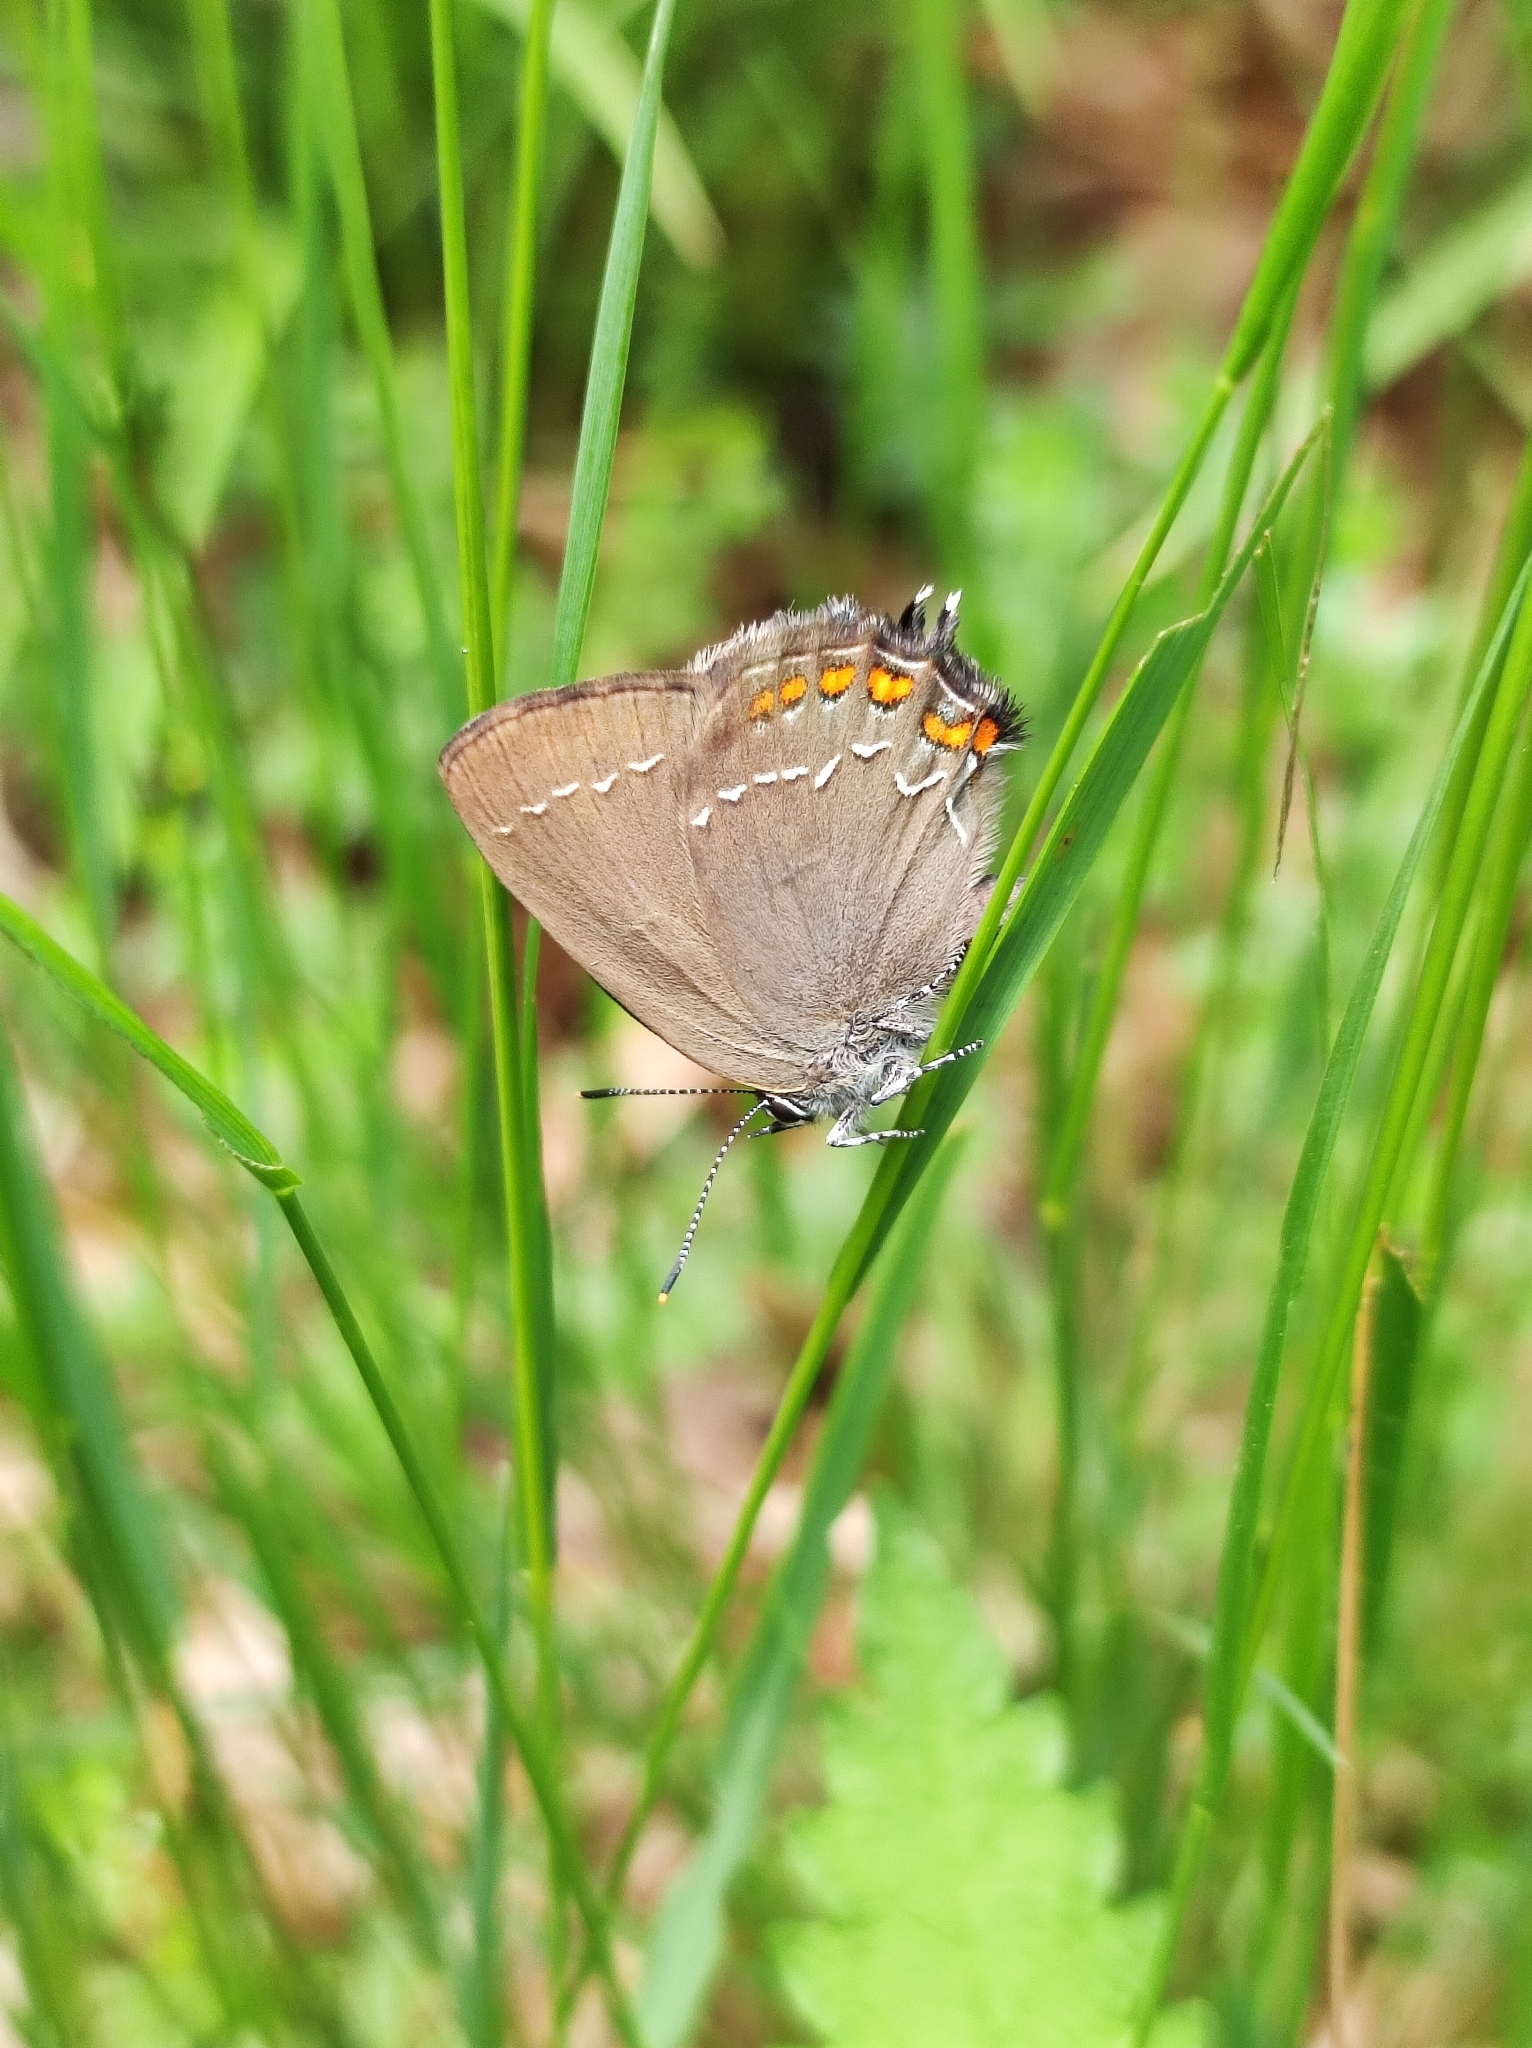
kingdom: Animalia
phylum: Arthropoda
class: Insecta
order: Lepidoptera
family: Lycaenidae
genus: Nordmannia
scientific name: Nordmannia ilicis
